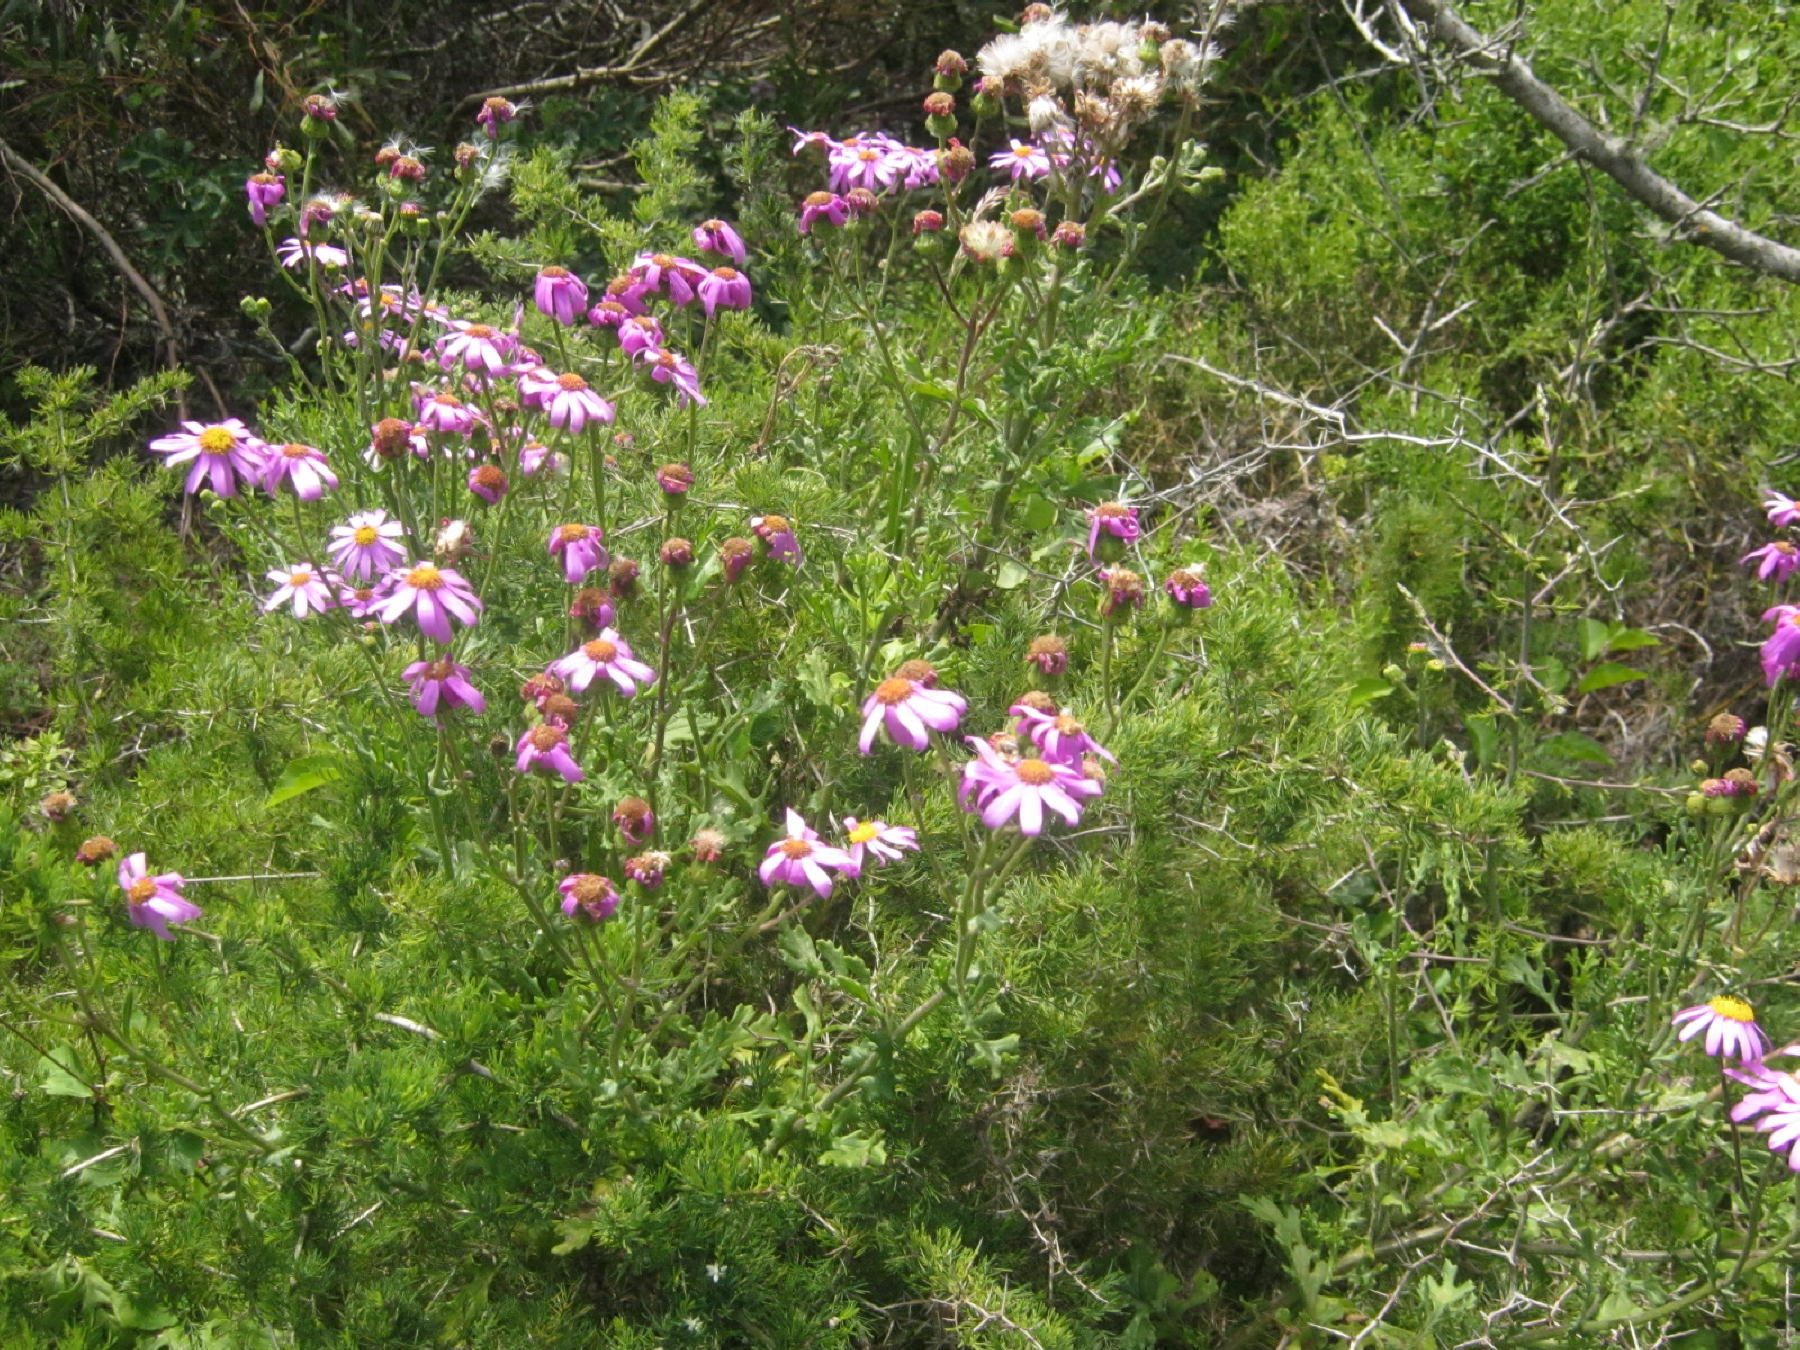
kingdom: Plantae
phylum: Tracheophyta
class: Magnoliopsida
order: Asterales
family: Asteraceae
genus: Senecio
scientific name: Senecio elegans
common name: Purple groundsel
